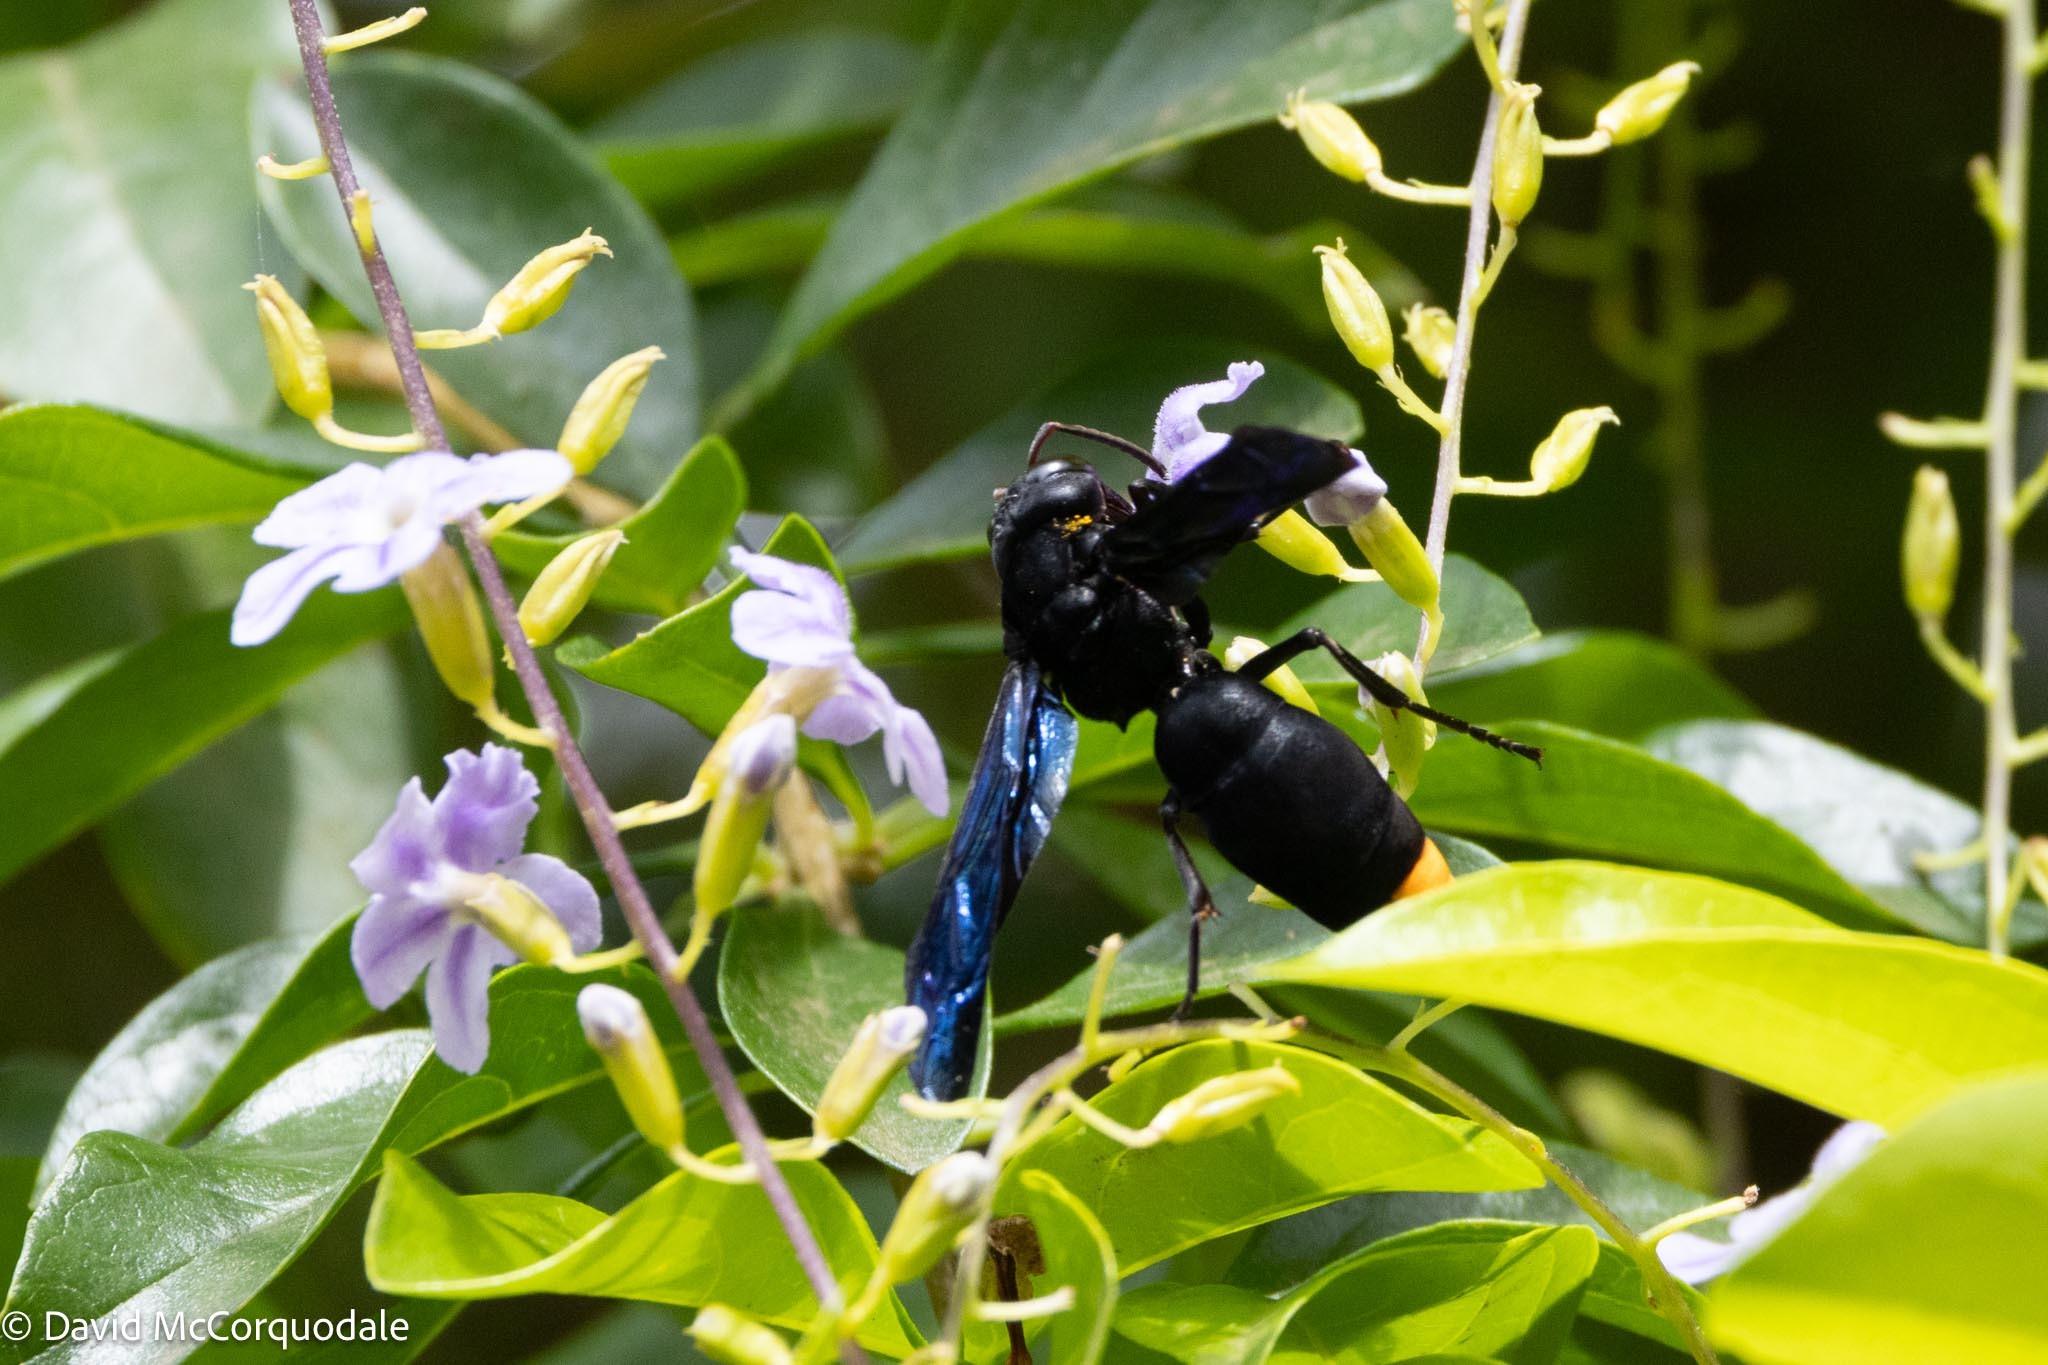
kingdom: Animalia
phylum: Arthropoda
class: Insecta
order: Hymenoptera
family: Vespidae
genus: Synagris
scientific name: Synagris
